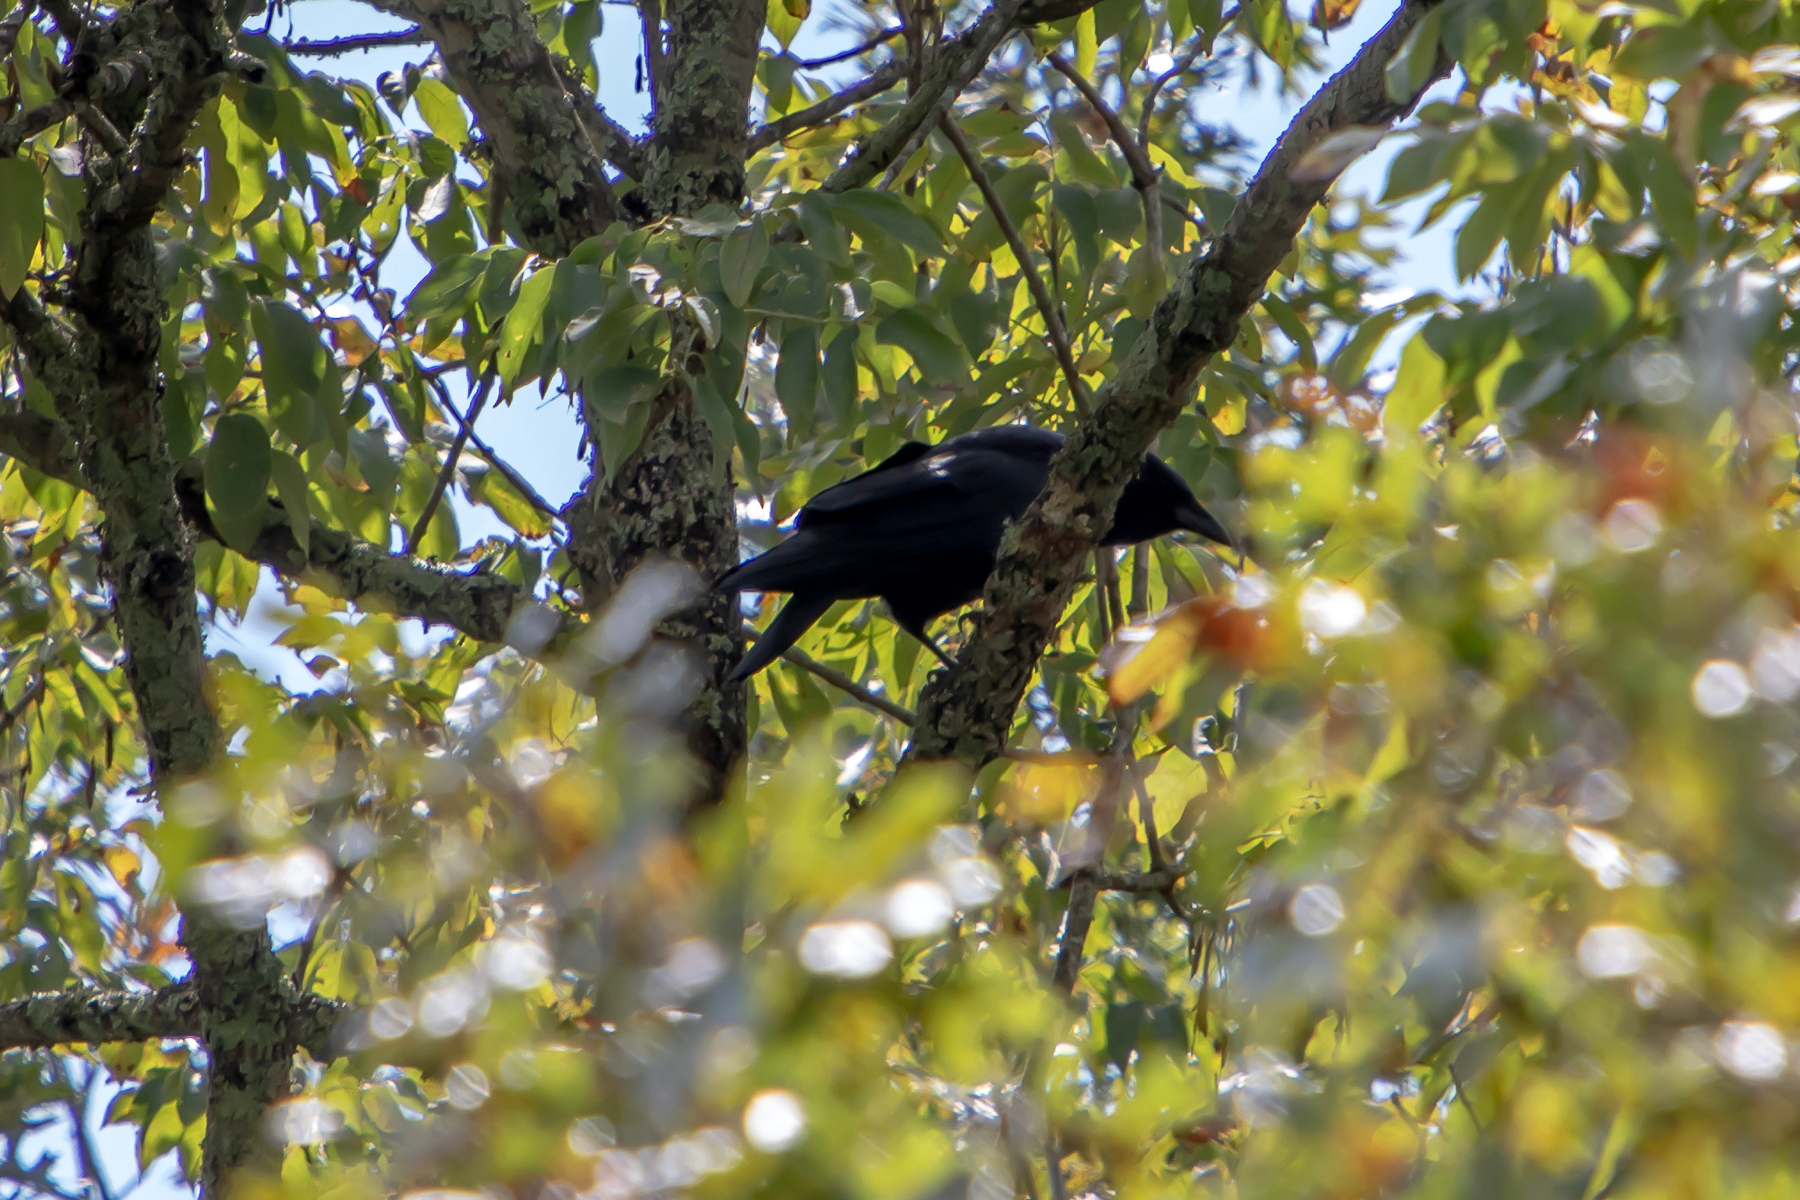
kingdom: Animalia
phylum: Chordata
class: Aves
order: Passeriformes
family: Corvidae
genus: Corvus
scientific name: Corvus brachyrhynchos
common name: American crow
